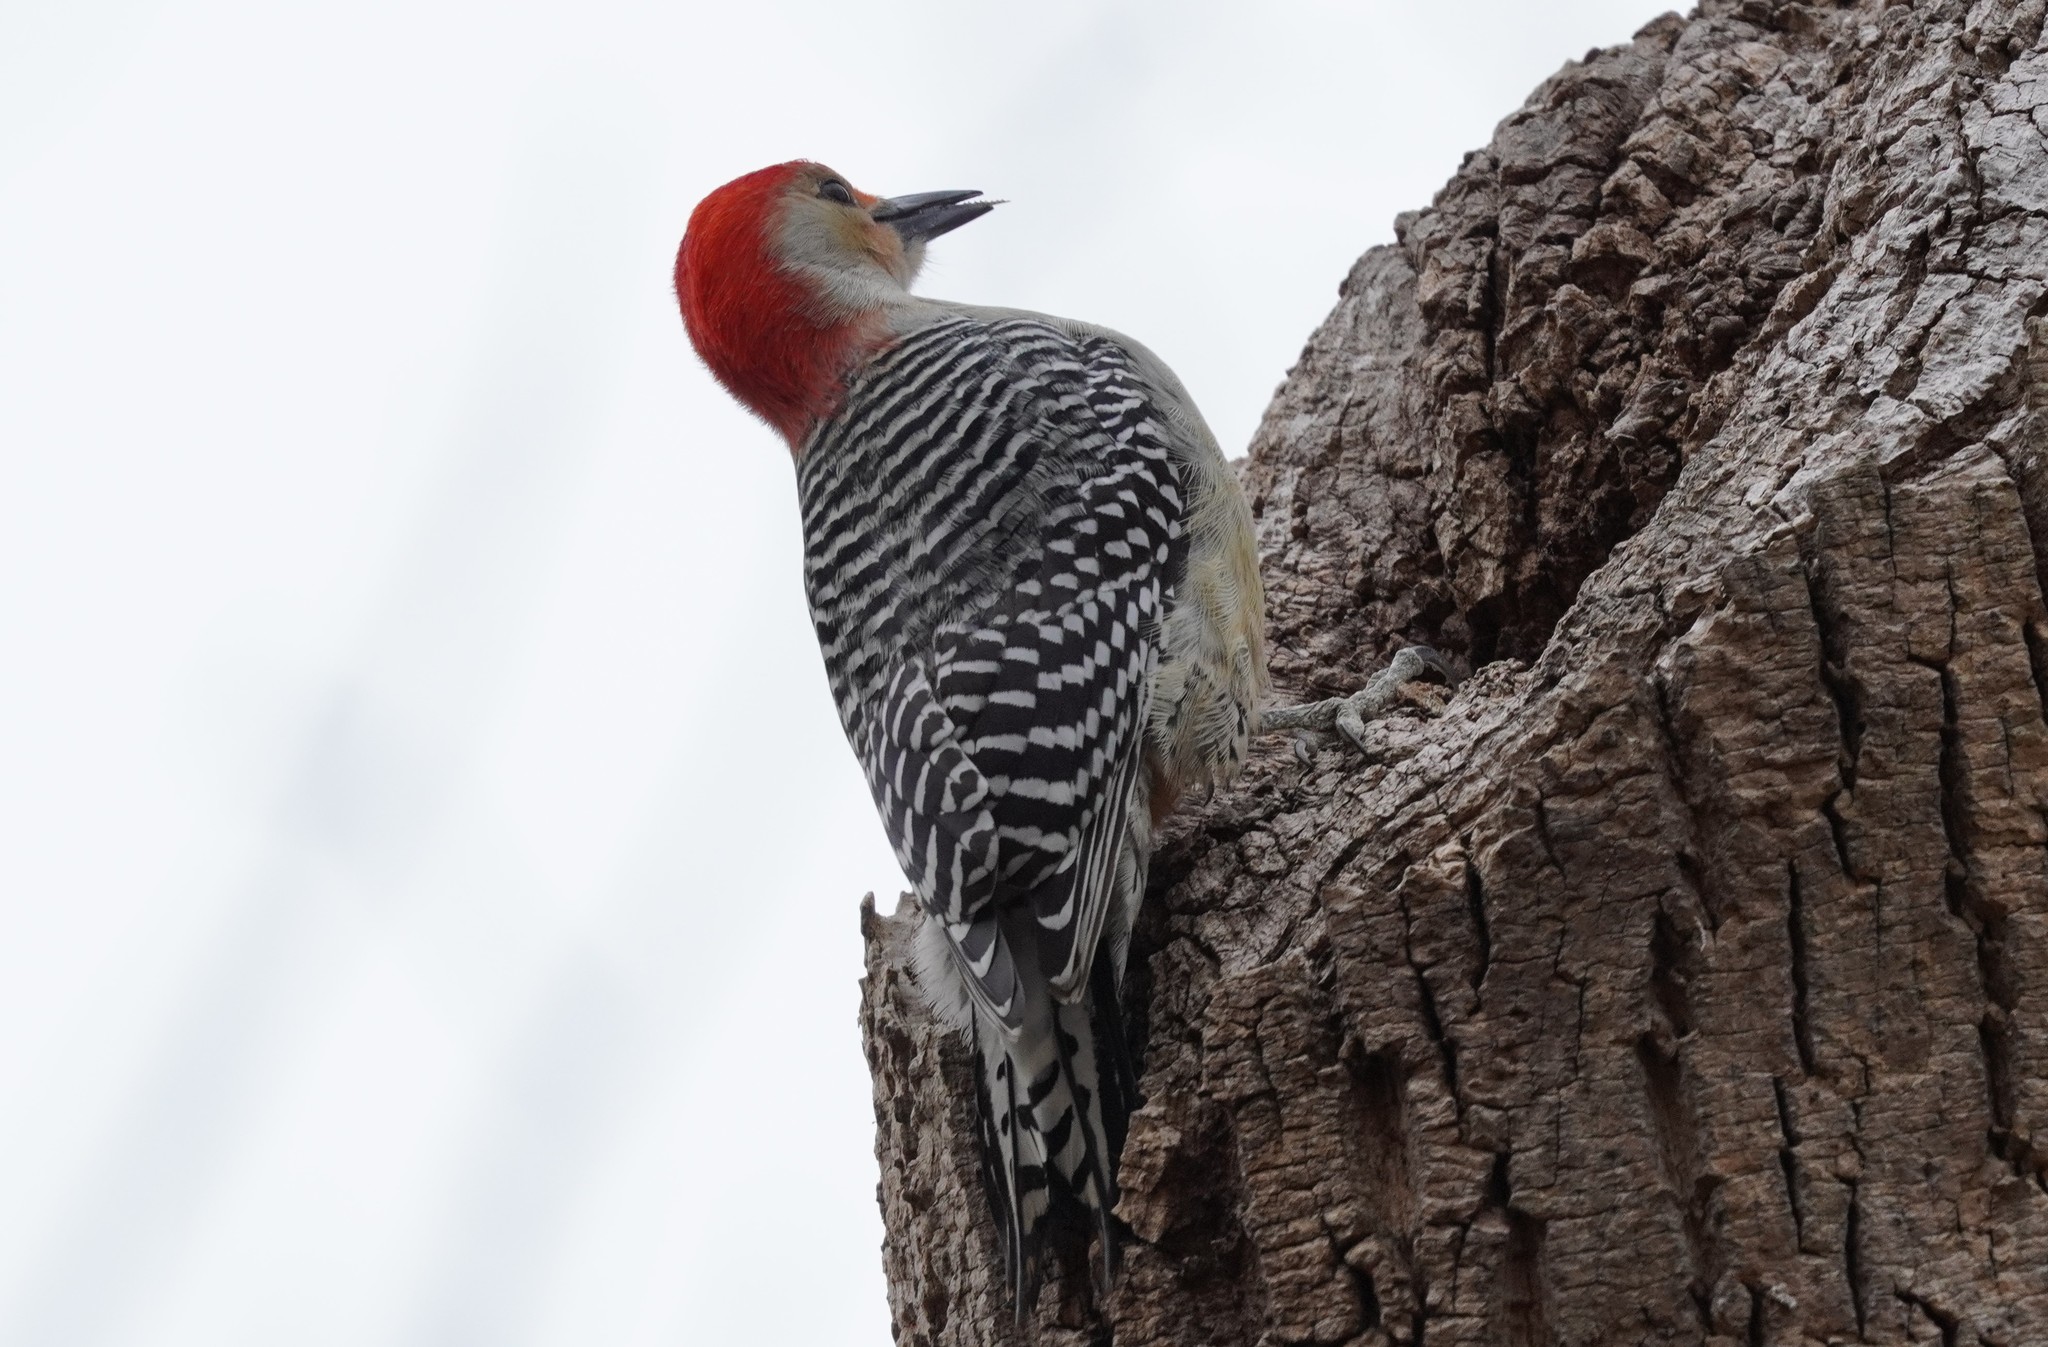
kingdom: Animalia
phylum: Chordata
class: Aves
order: Piciformes
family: Picidae
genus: Melanerpes
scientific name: Melanerpes carolinus
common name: Red-bellied woodpecker
